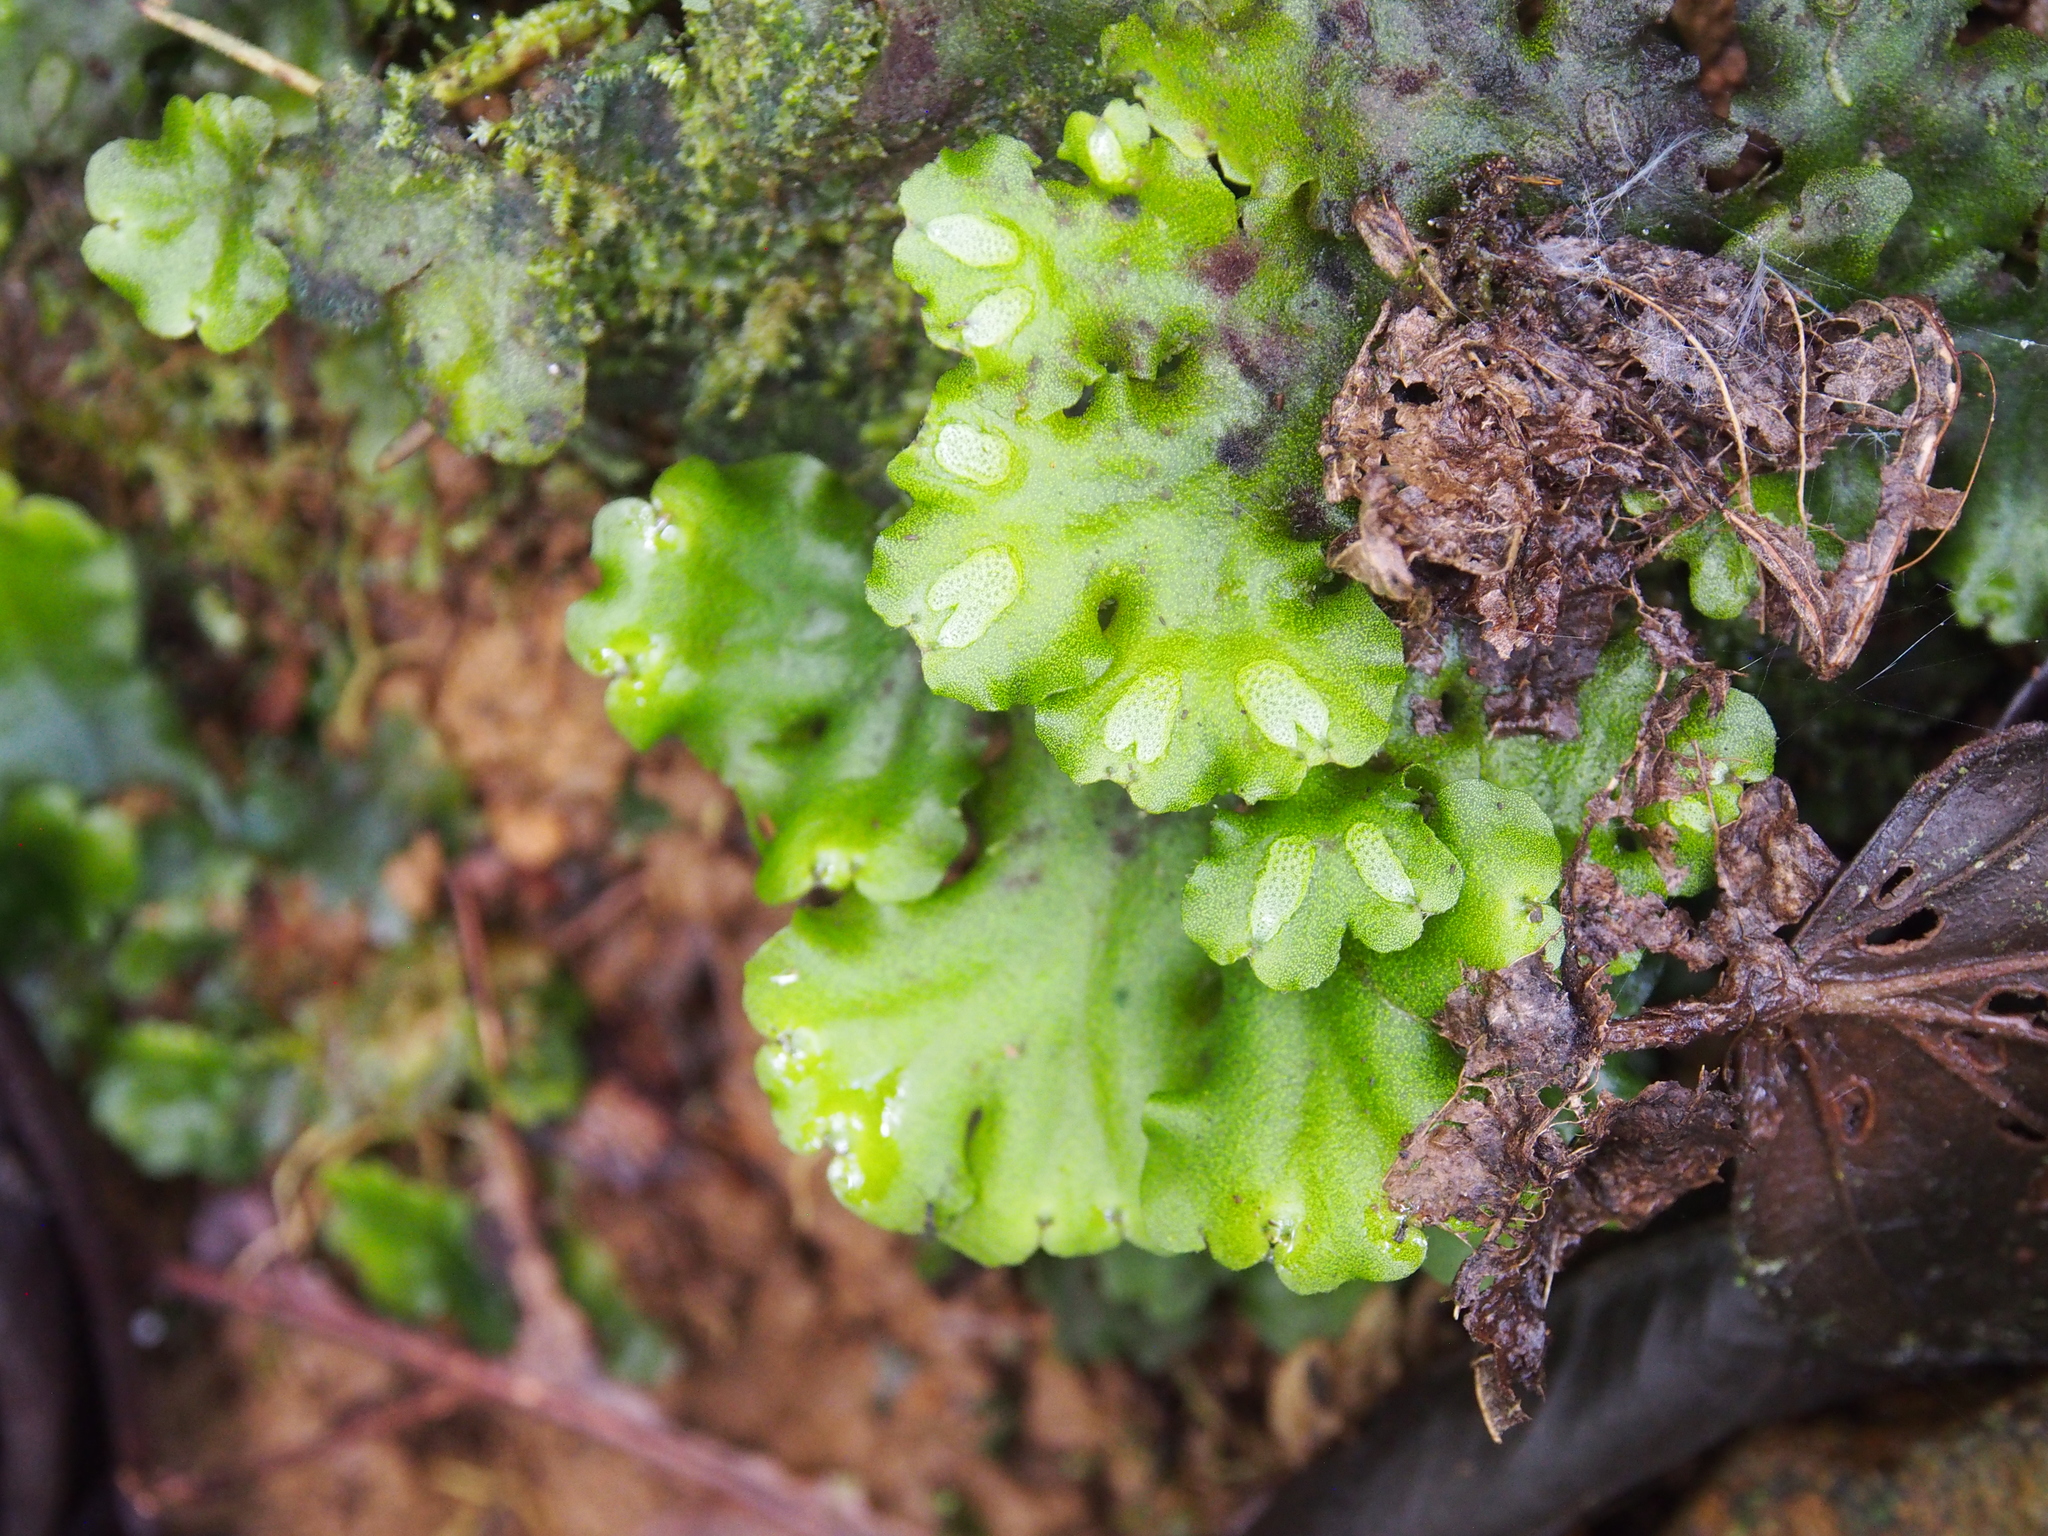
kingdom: Plantae
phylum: Marchantiophyta
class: Marchantiopsida
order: Marchantiales
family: Monocleaceae
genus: Monoclea
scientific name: Monoclea gottschei
